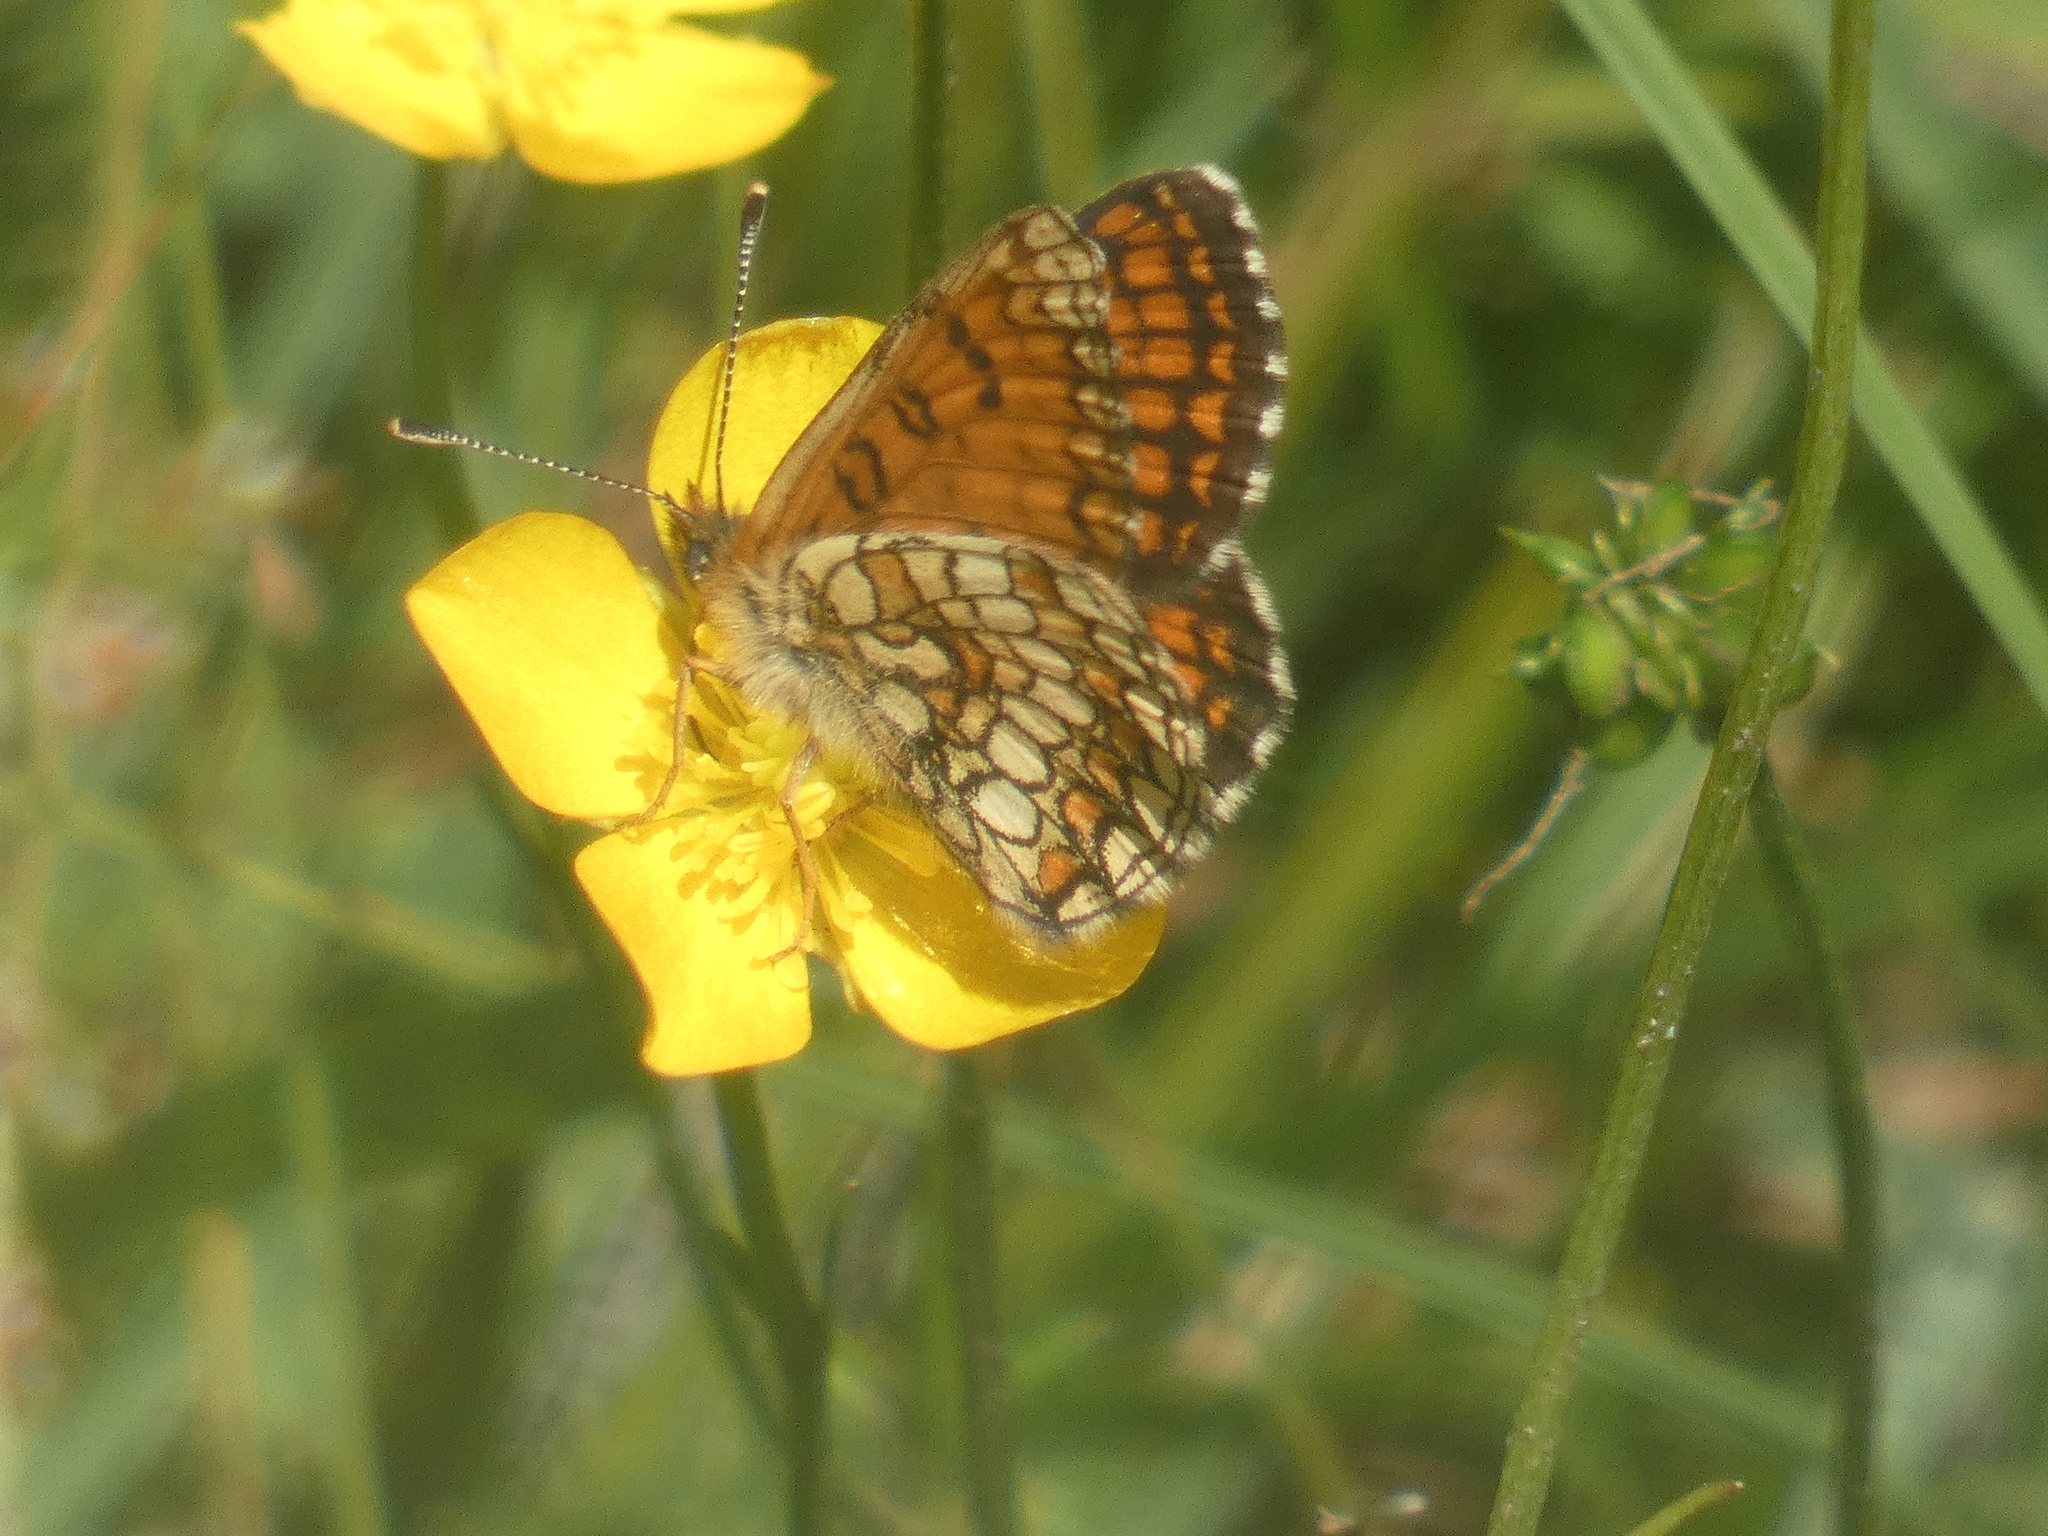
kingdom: Animalia
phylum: Arthropoda
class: Insecta
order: Lepidoptera
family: Nymphalidae
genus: Mellicta
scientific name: Mellicta parthenoides
